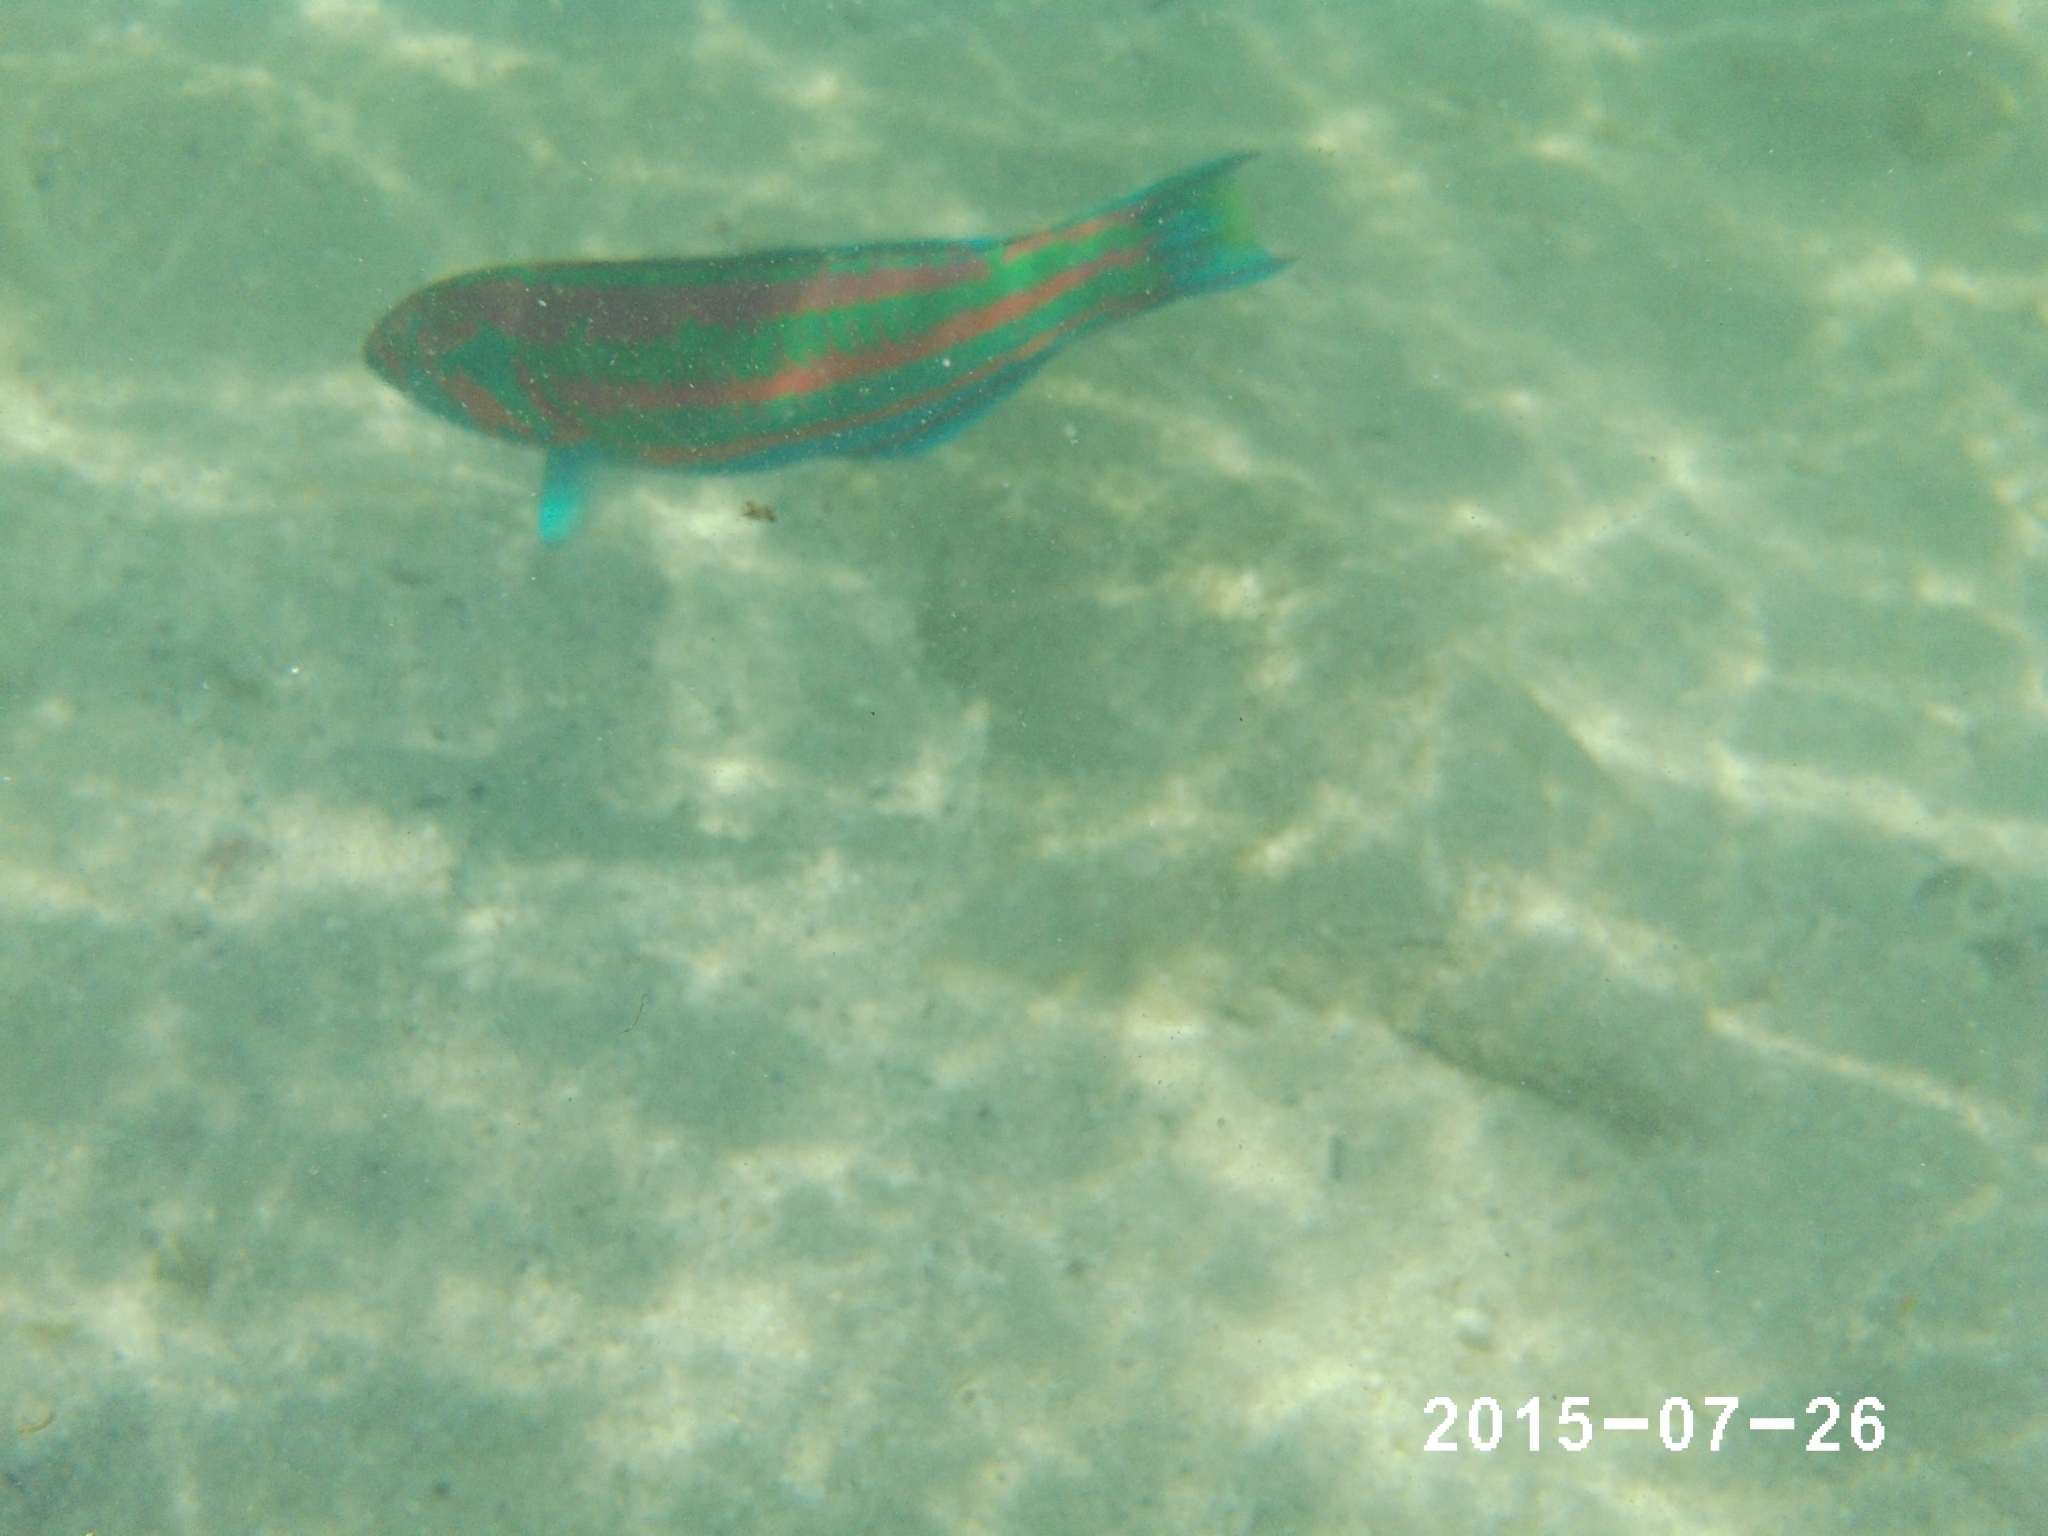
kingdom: Animalia
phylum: Chordata
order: Perciformes
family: Labridae
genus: Thalassoma
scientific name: Thalassoma purpureum
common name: Parrotfish
